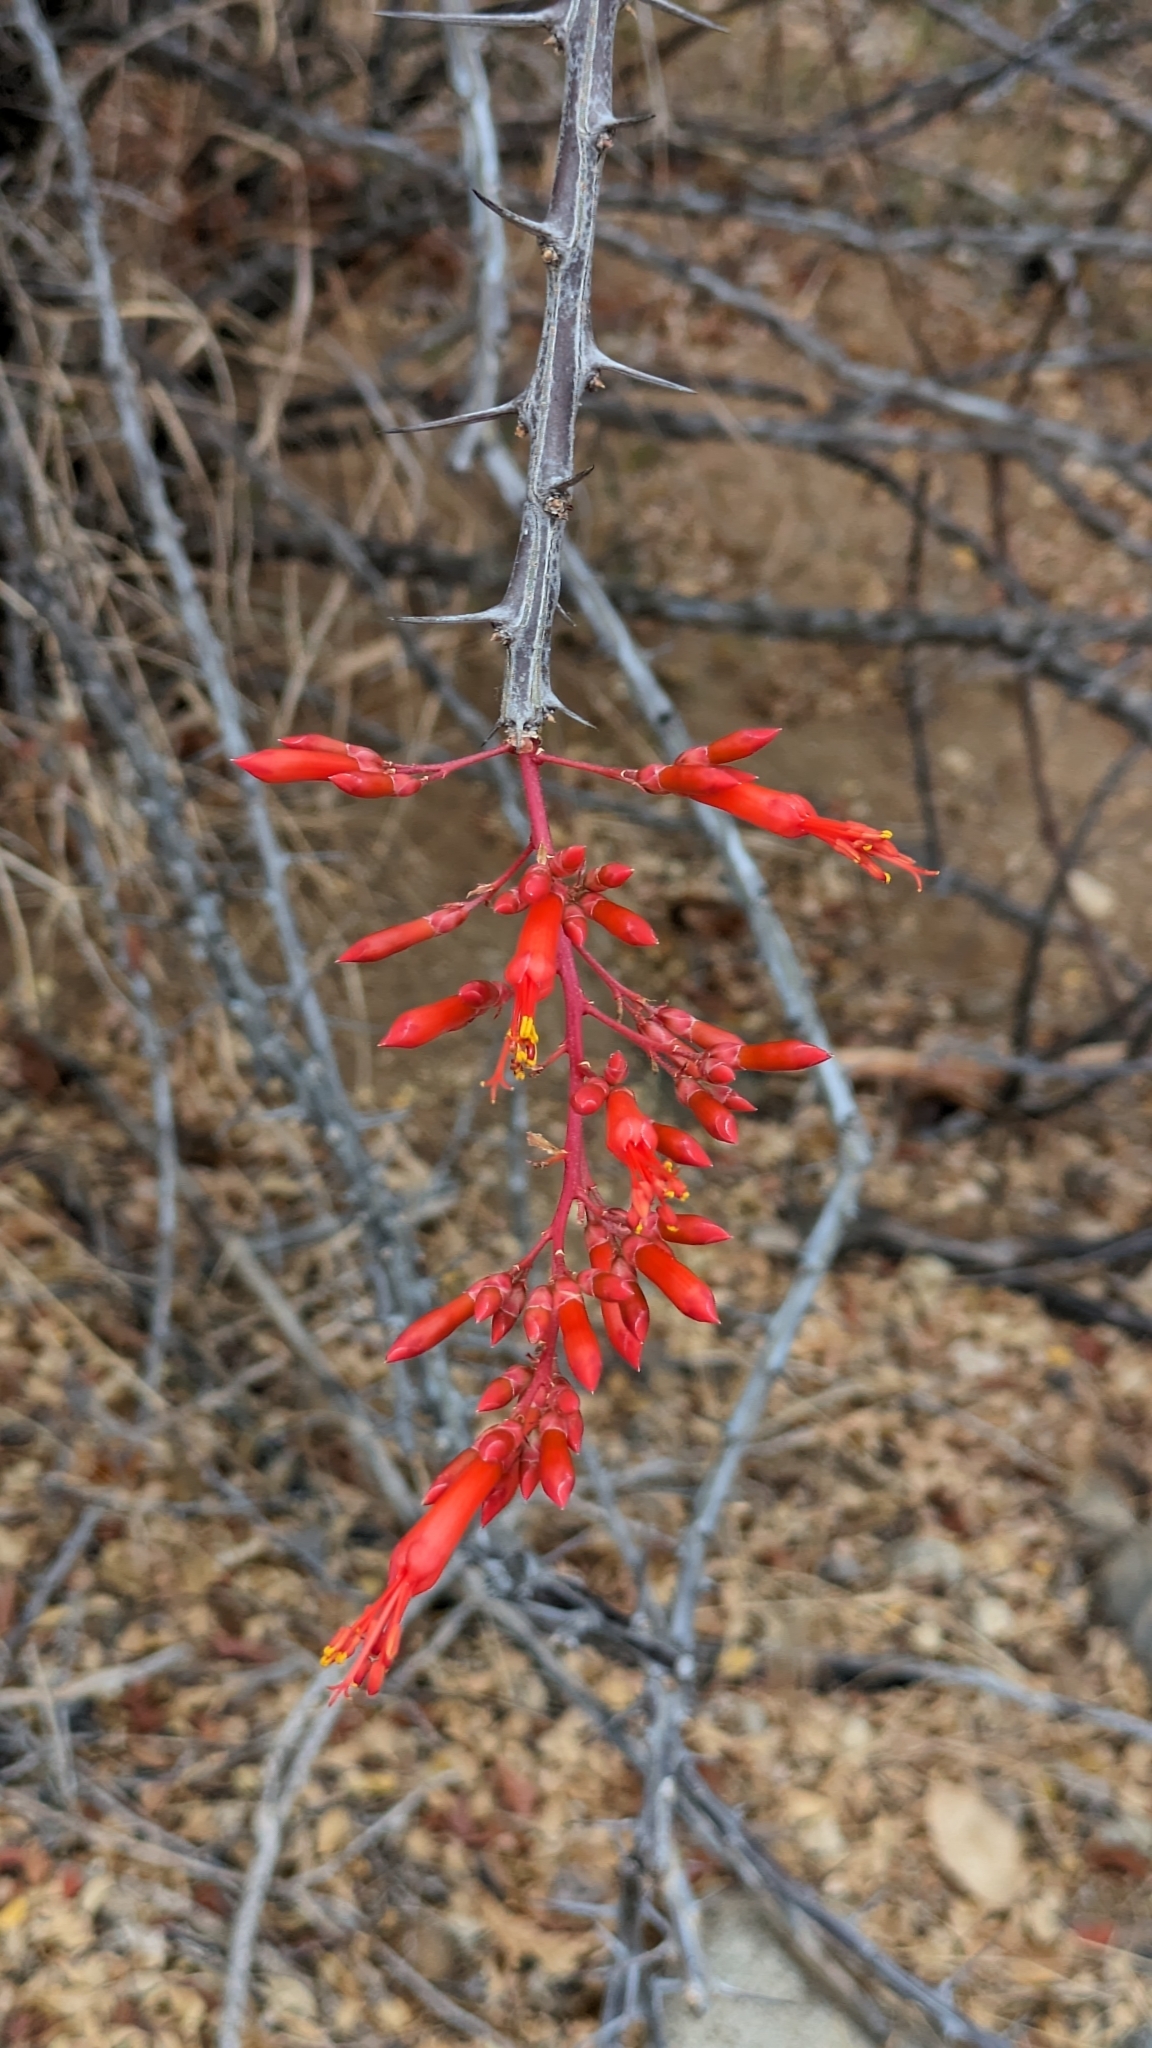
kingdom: Plantae
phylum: Tracheophyta
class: Magnoliopsida
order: Ericales
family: Fouquieriaceae
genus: Fouquieria
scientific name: Fouquieria diguetii
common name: Adam's tree
